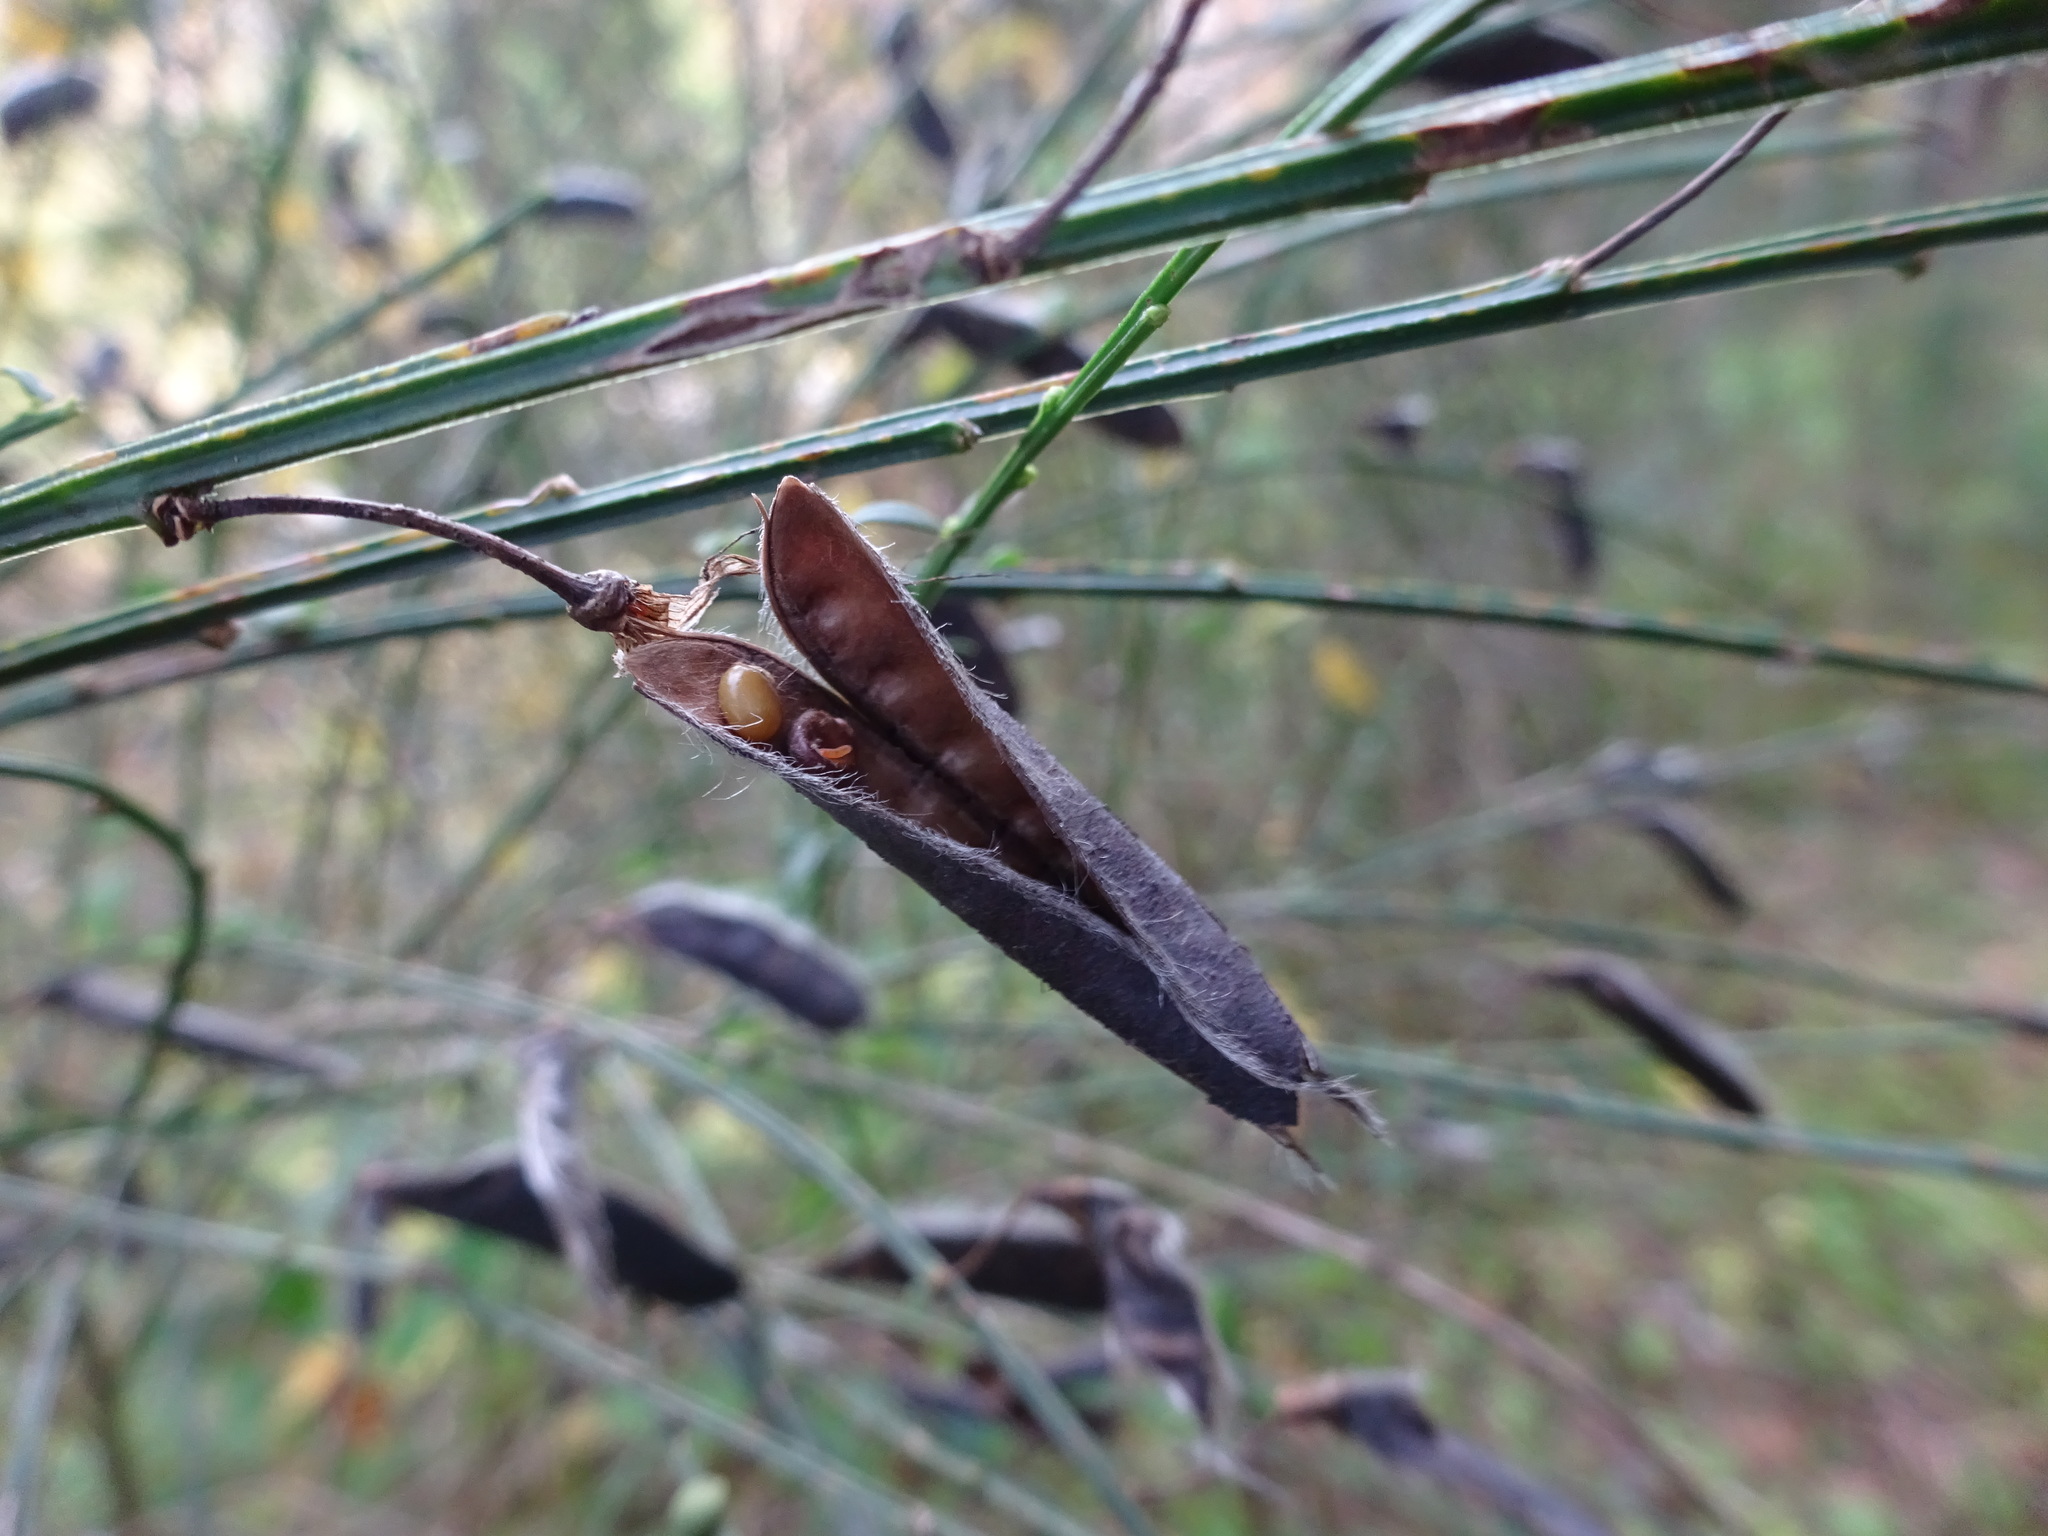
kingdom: Plantae
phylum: Tracheophyta
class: Magnoliopsida
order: Fabales
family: Fabaceae
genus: Cytisus
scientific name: Cytisus scoparius
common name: Scotch broom
